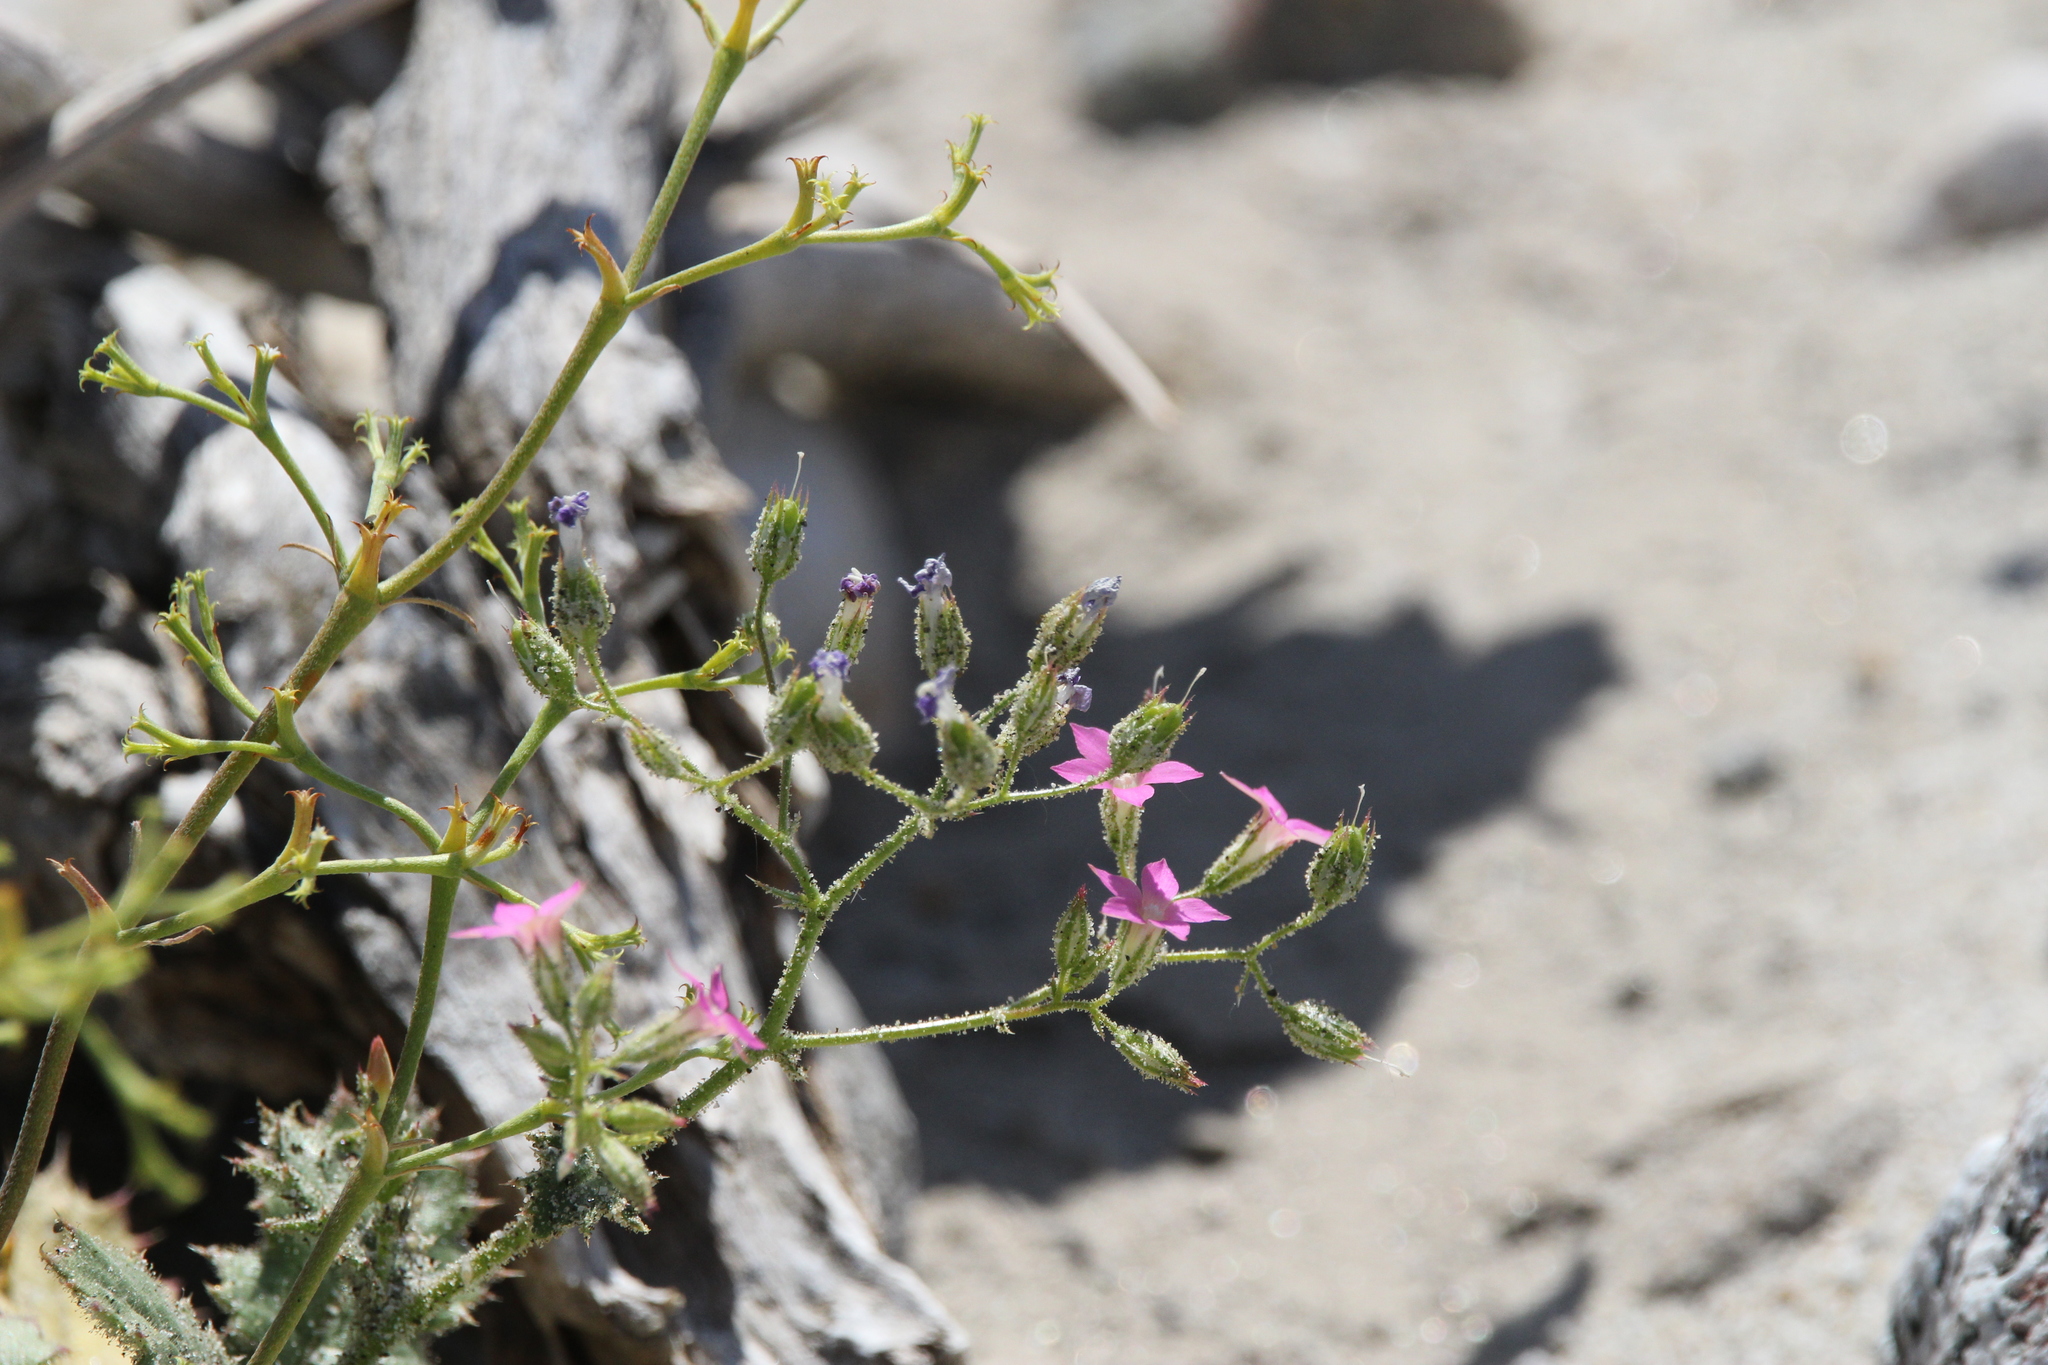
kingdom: Plantae
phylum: Tracheophyta
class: Magnoliopsida
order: Ericales
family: Polemoniaceae
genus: Aliciella
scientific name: Aliciella latifolia
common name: Broad-leaf gilia
